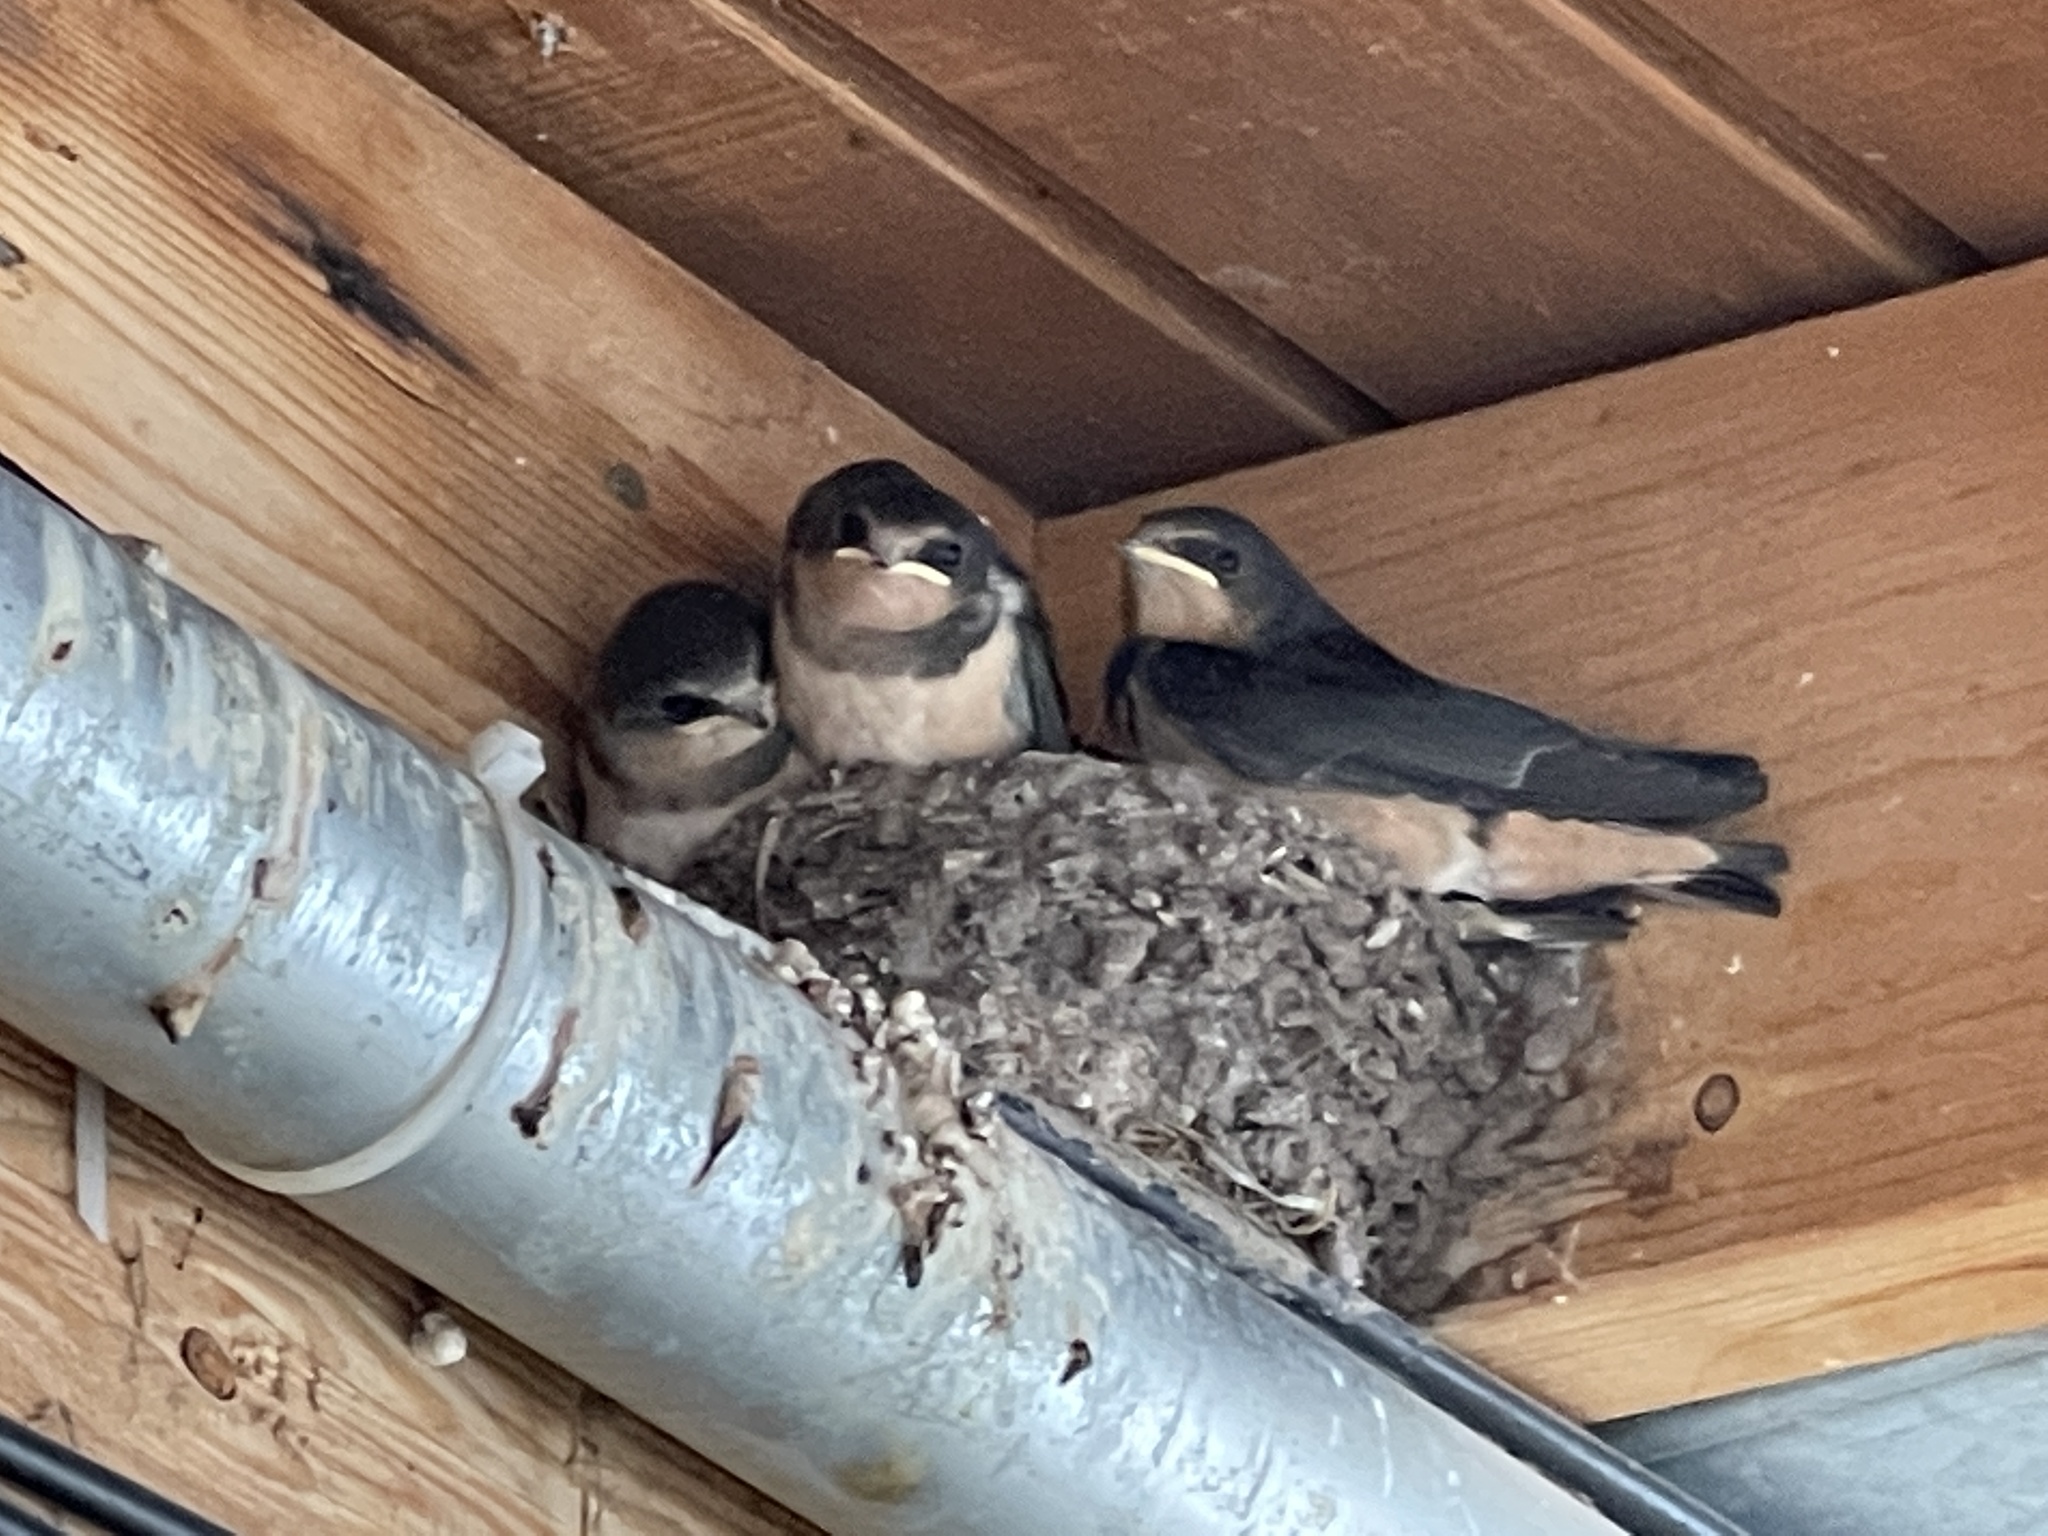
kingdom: Animalia
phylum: Chordata
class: Aves
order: Passeriformes
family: Hirundinidae
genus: Hirundo
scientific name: Hirundo rustica
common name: Barn swallow
